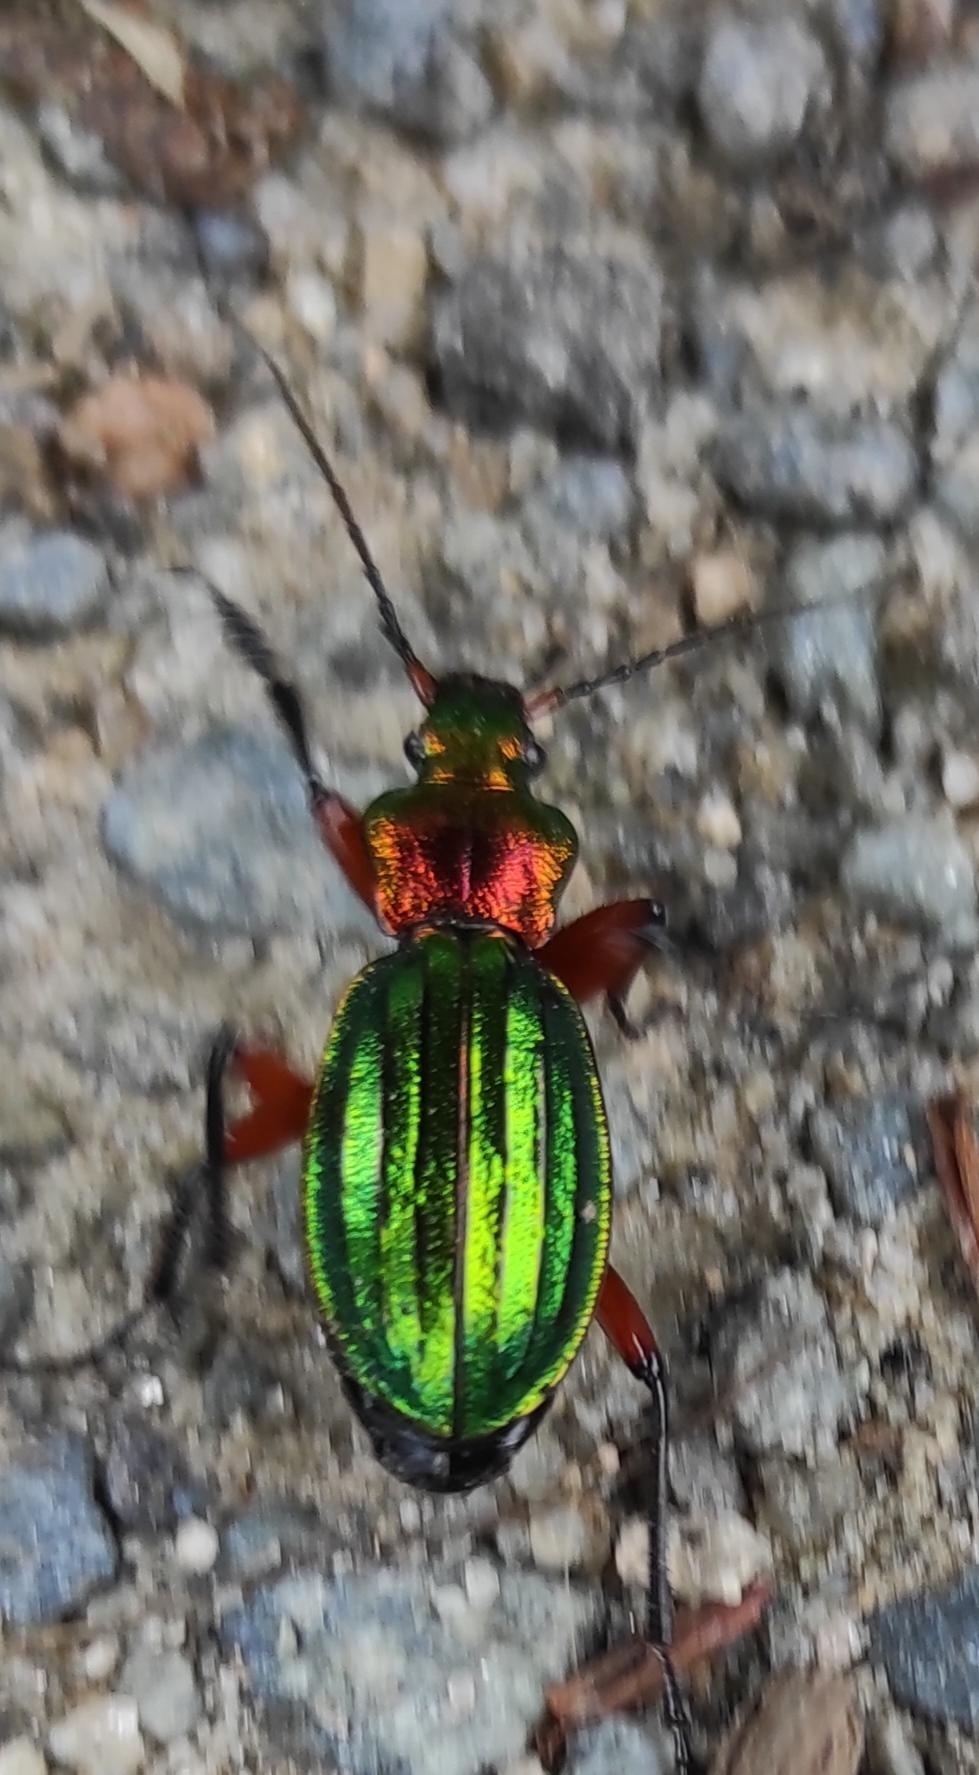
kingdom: Animalia
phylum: Arthropoda
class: Insecta
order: Coleoptera
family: Carabidae
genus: Carabus
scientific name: Carabus auronitens
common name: Carabus auronitens
